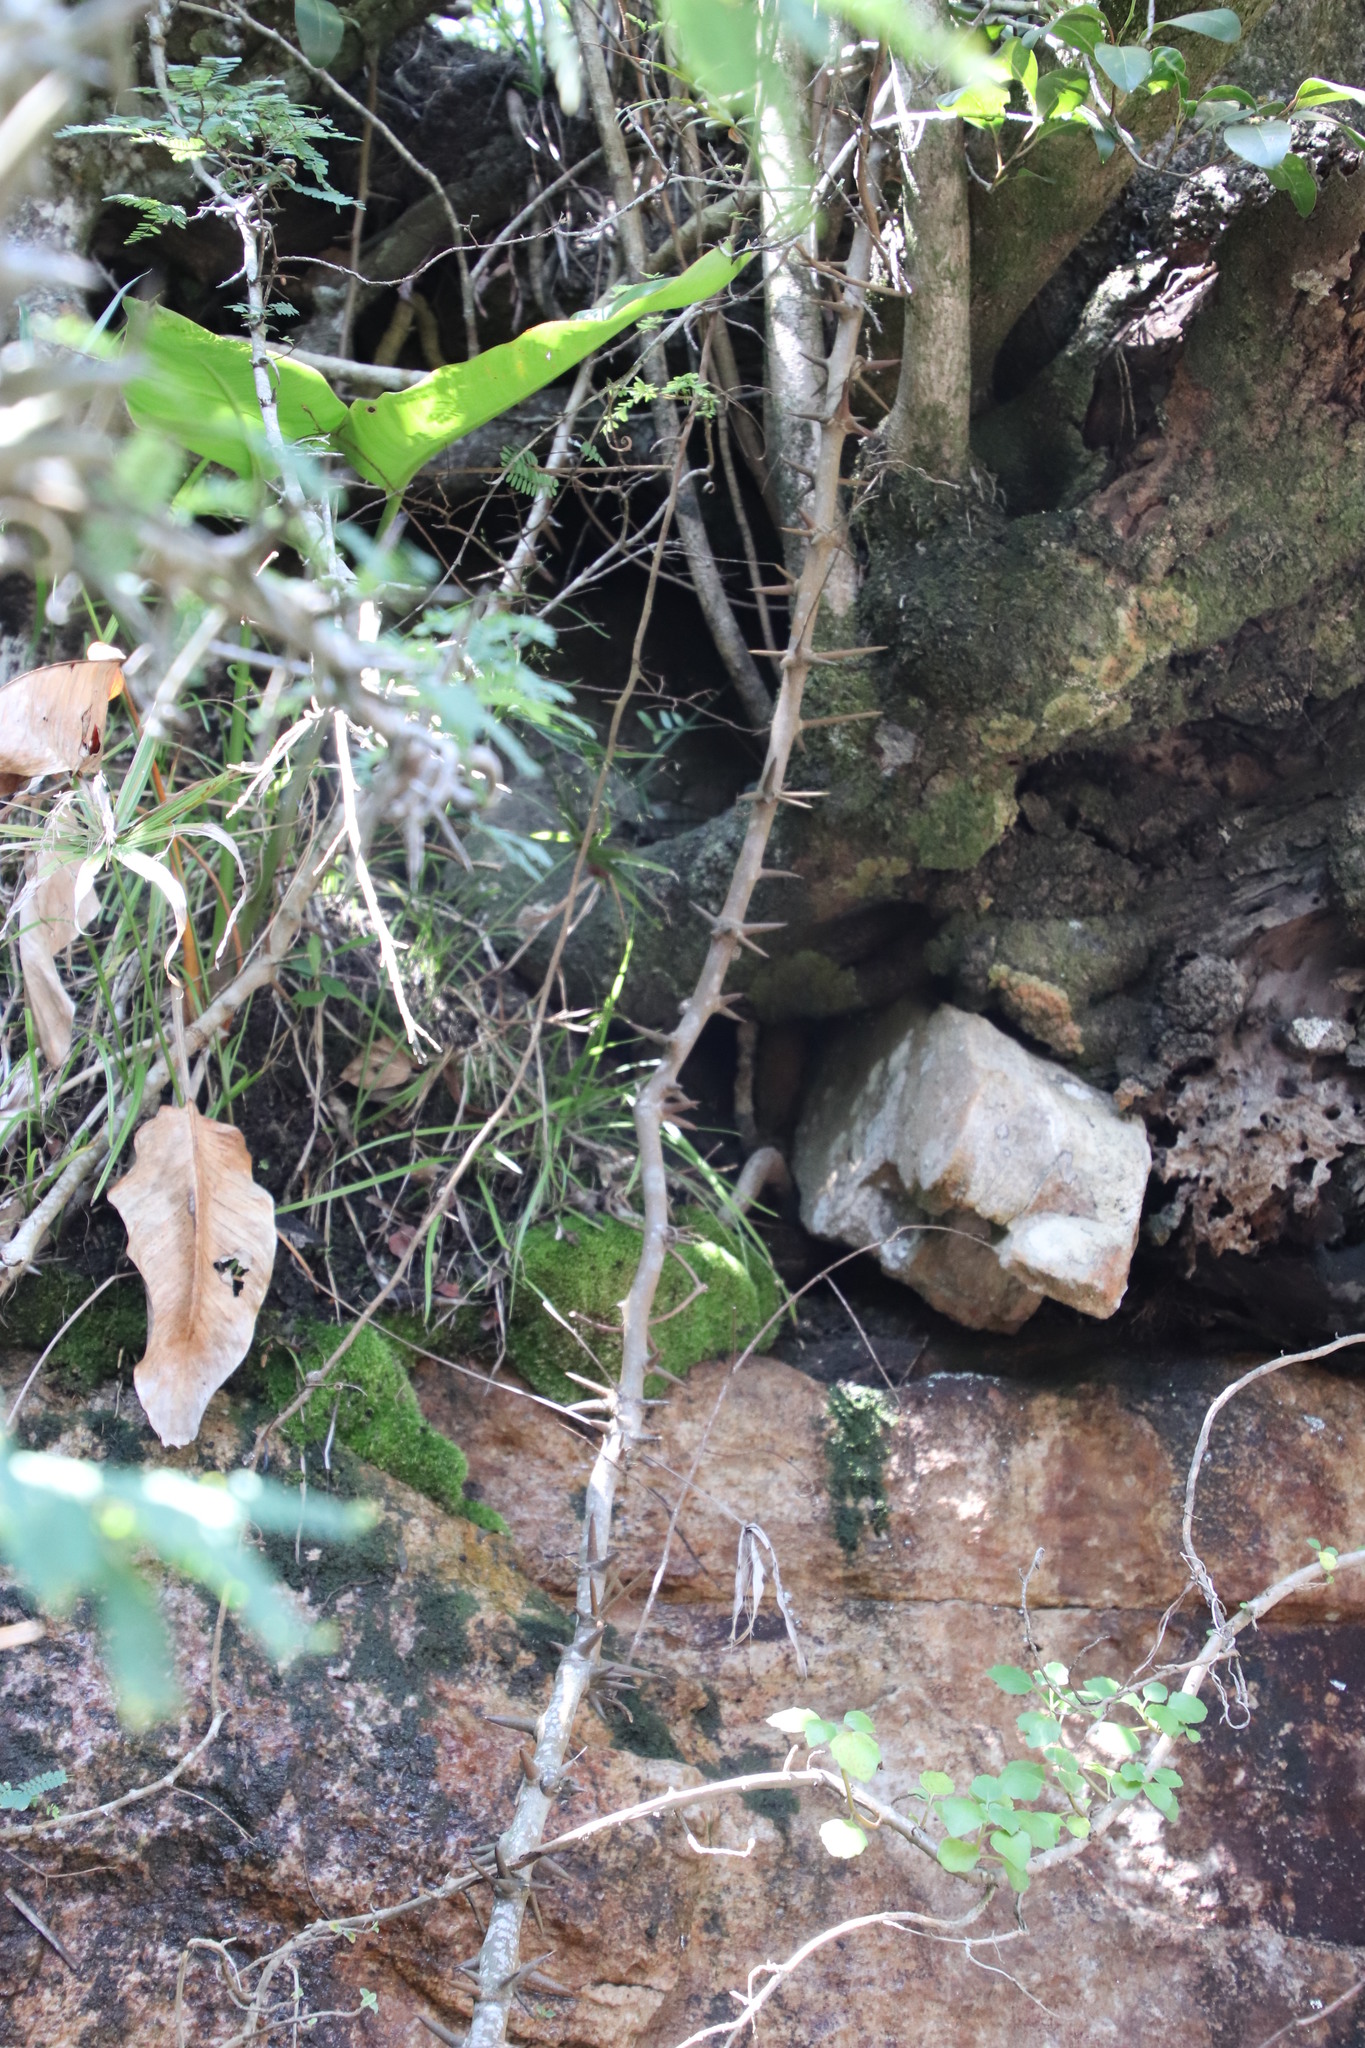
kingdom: Plantae
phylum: Tracheophyta
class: Magnoliopsida
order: Fabales
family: Fabaceae
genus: Dalbergia
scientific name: Dalbergia armata
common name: Hluhluwe climber
